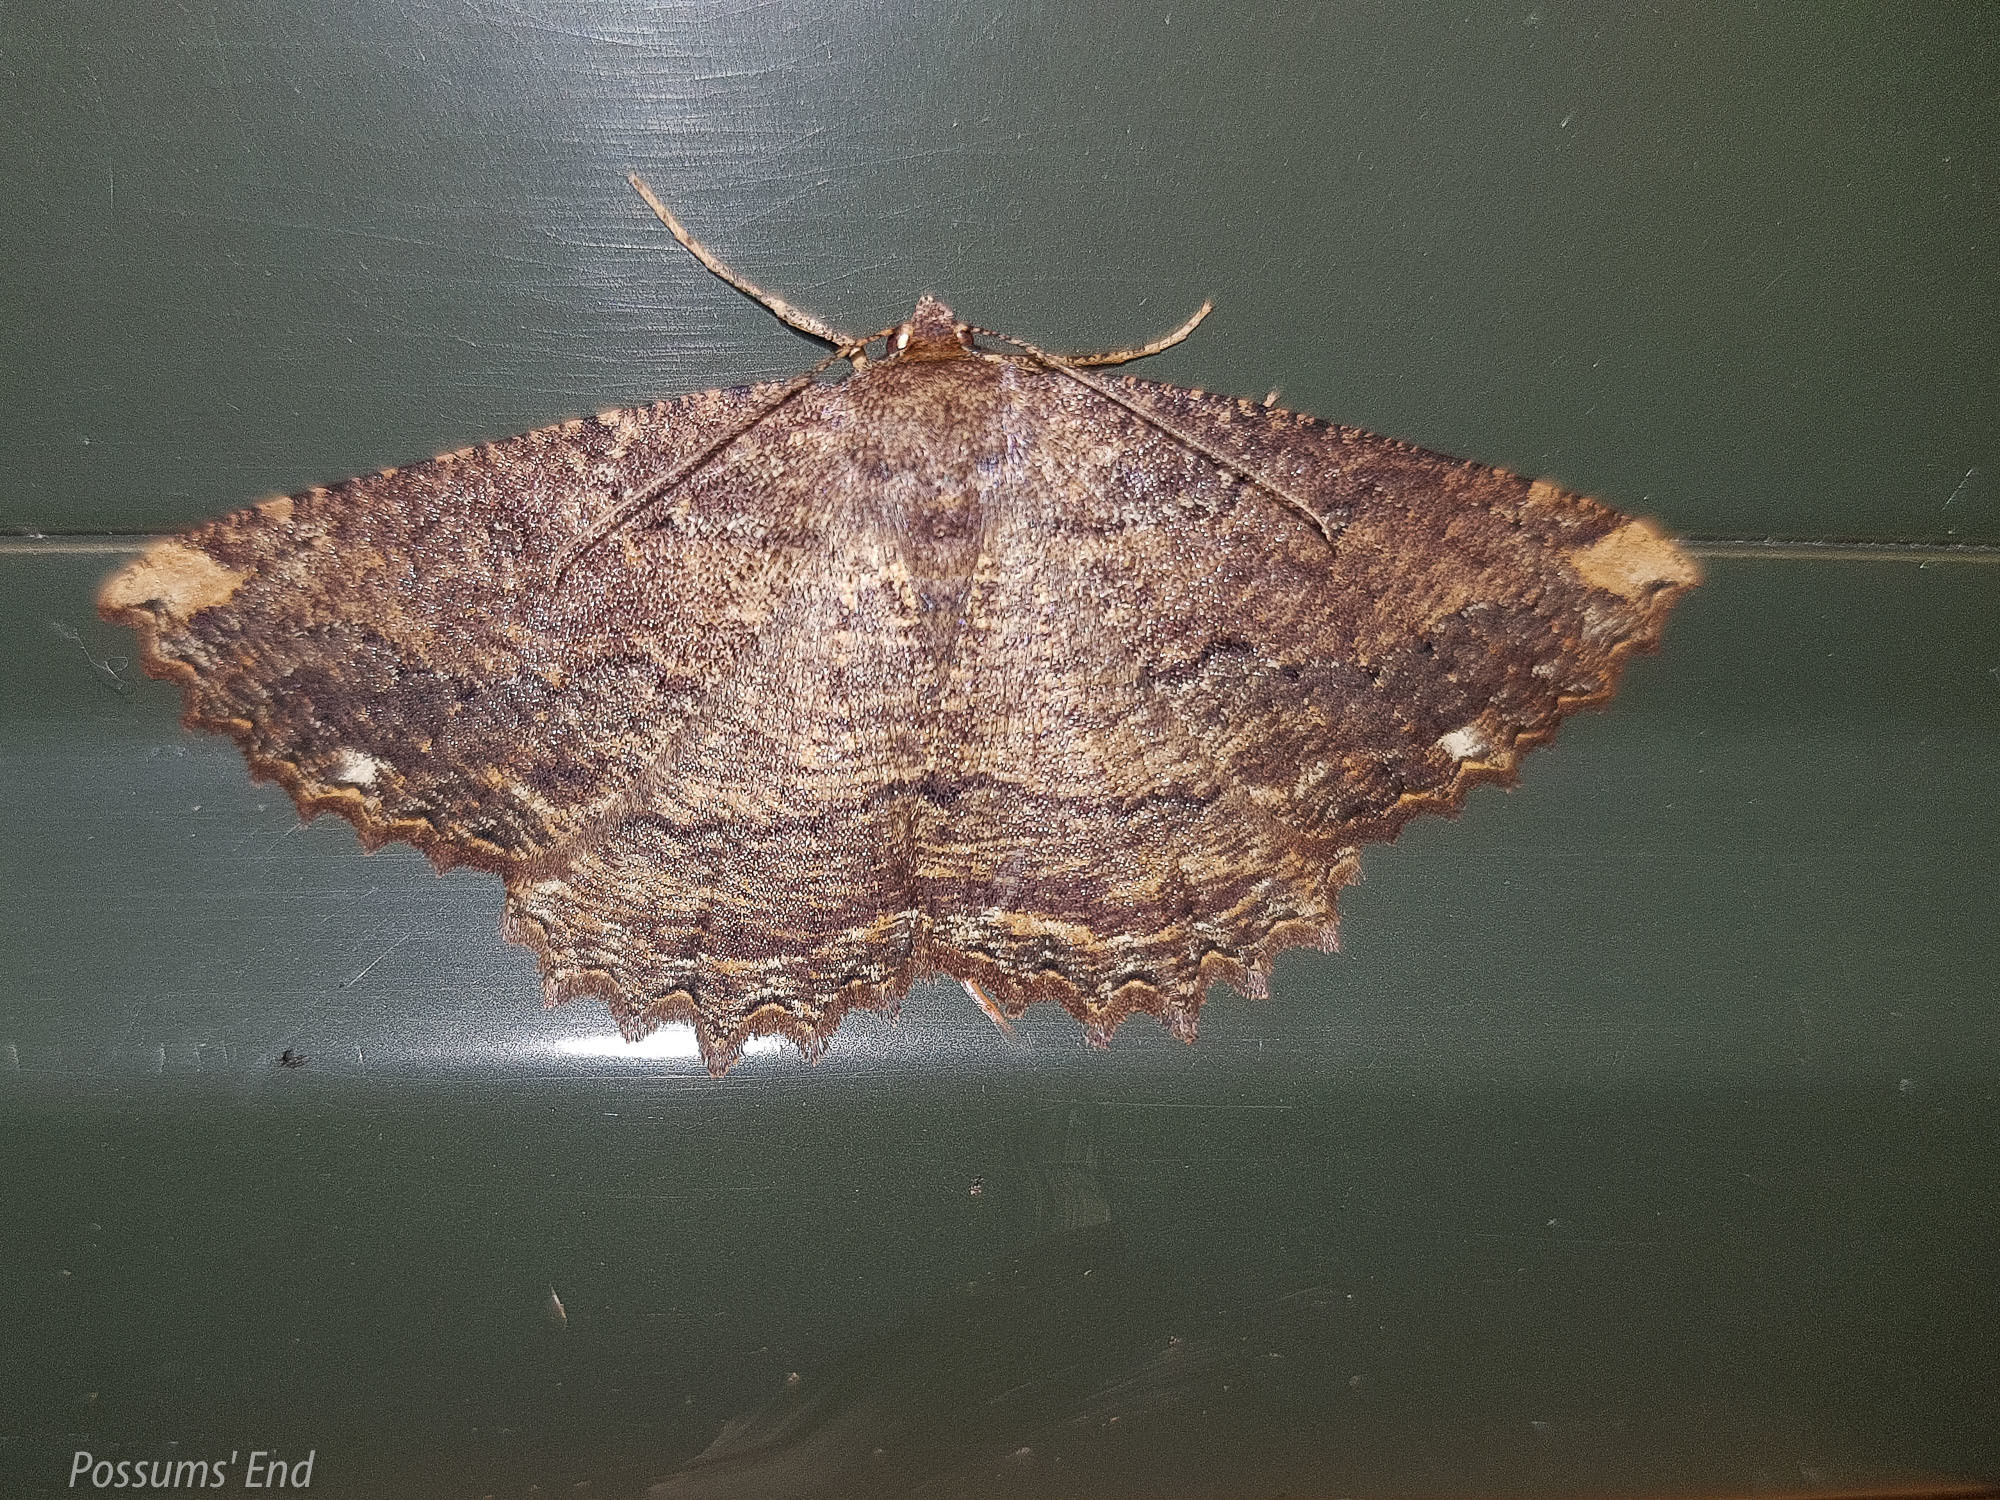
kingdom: Animalia
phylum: Arthropoda
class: Insecta
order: Lepidoptera
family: Geometridae
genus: Gellonia
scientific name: Gellonia dejectaria
